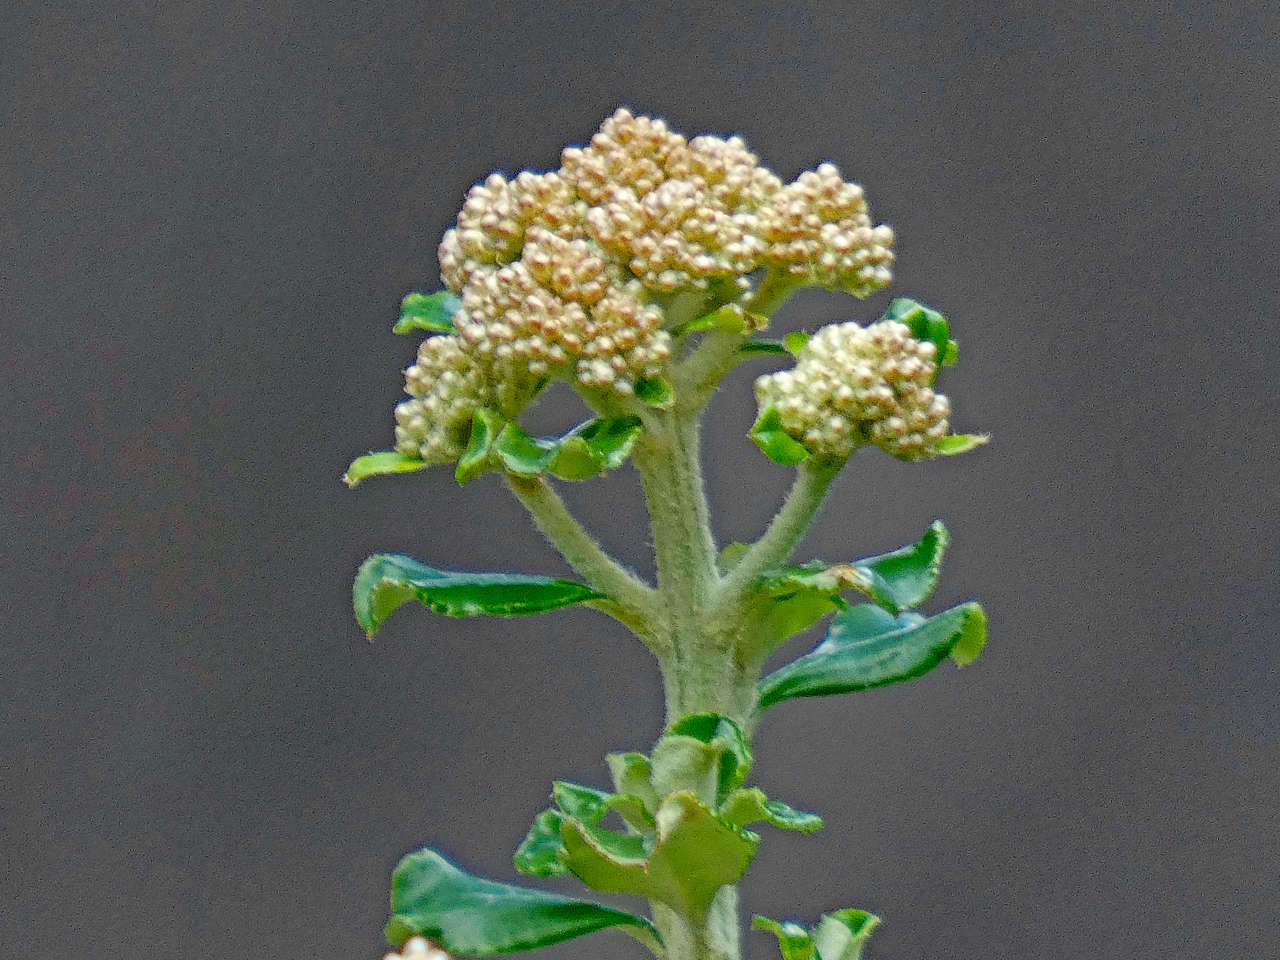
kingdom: Plantae
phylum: Tracheophyta
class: Magnoliopsida
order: Asterales
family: Asteraceae
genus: Ozothamnus
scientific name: Ozothamnus obcordatus
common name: Grey everlasting
